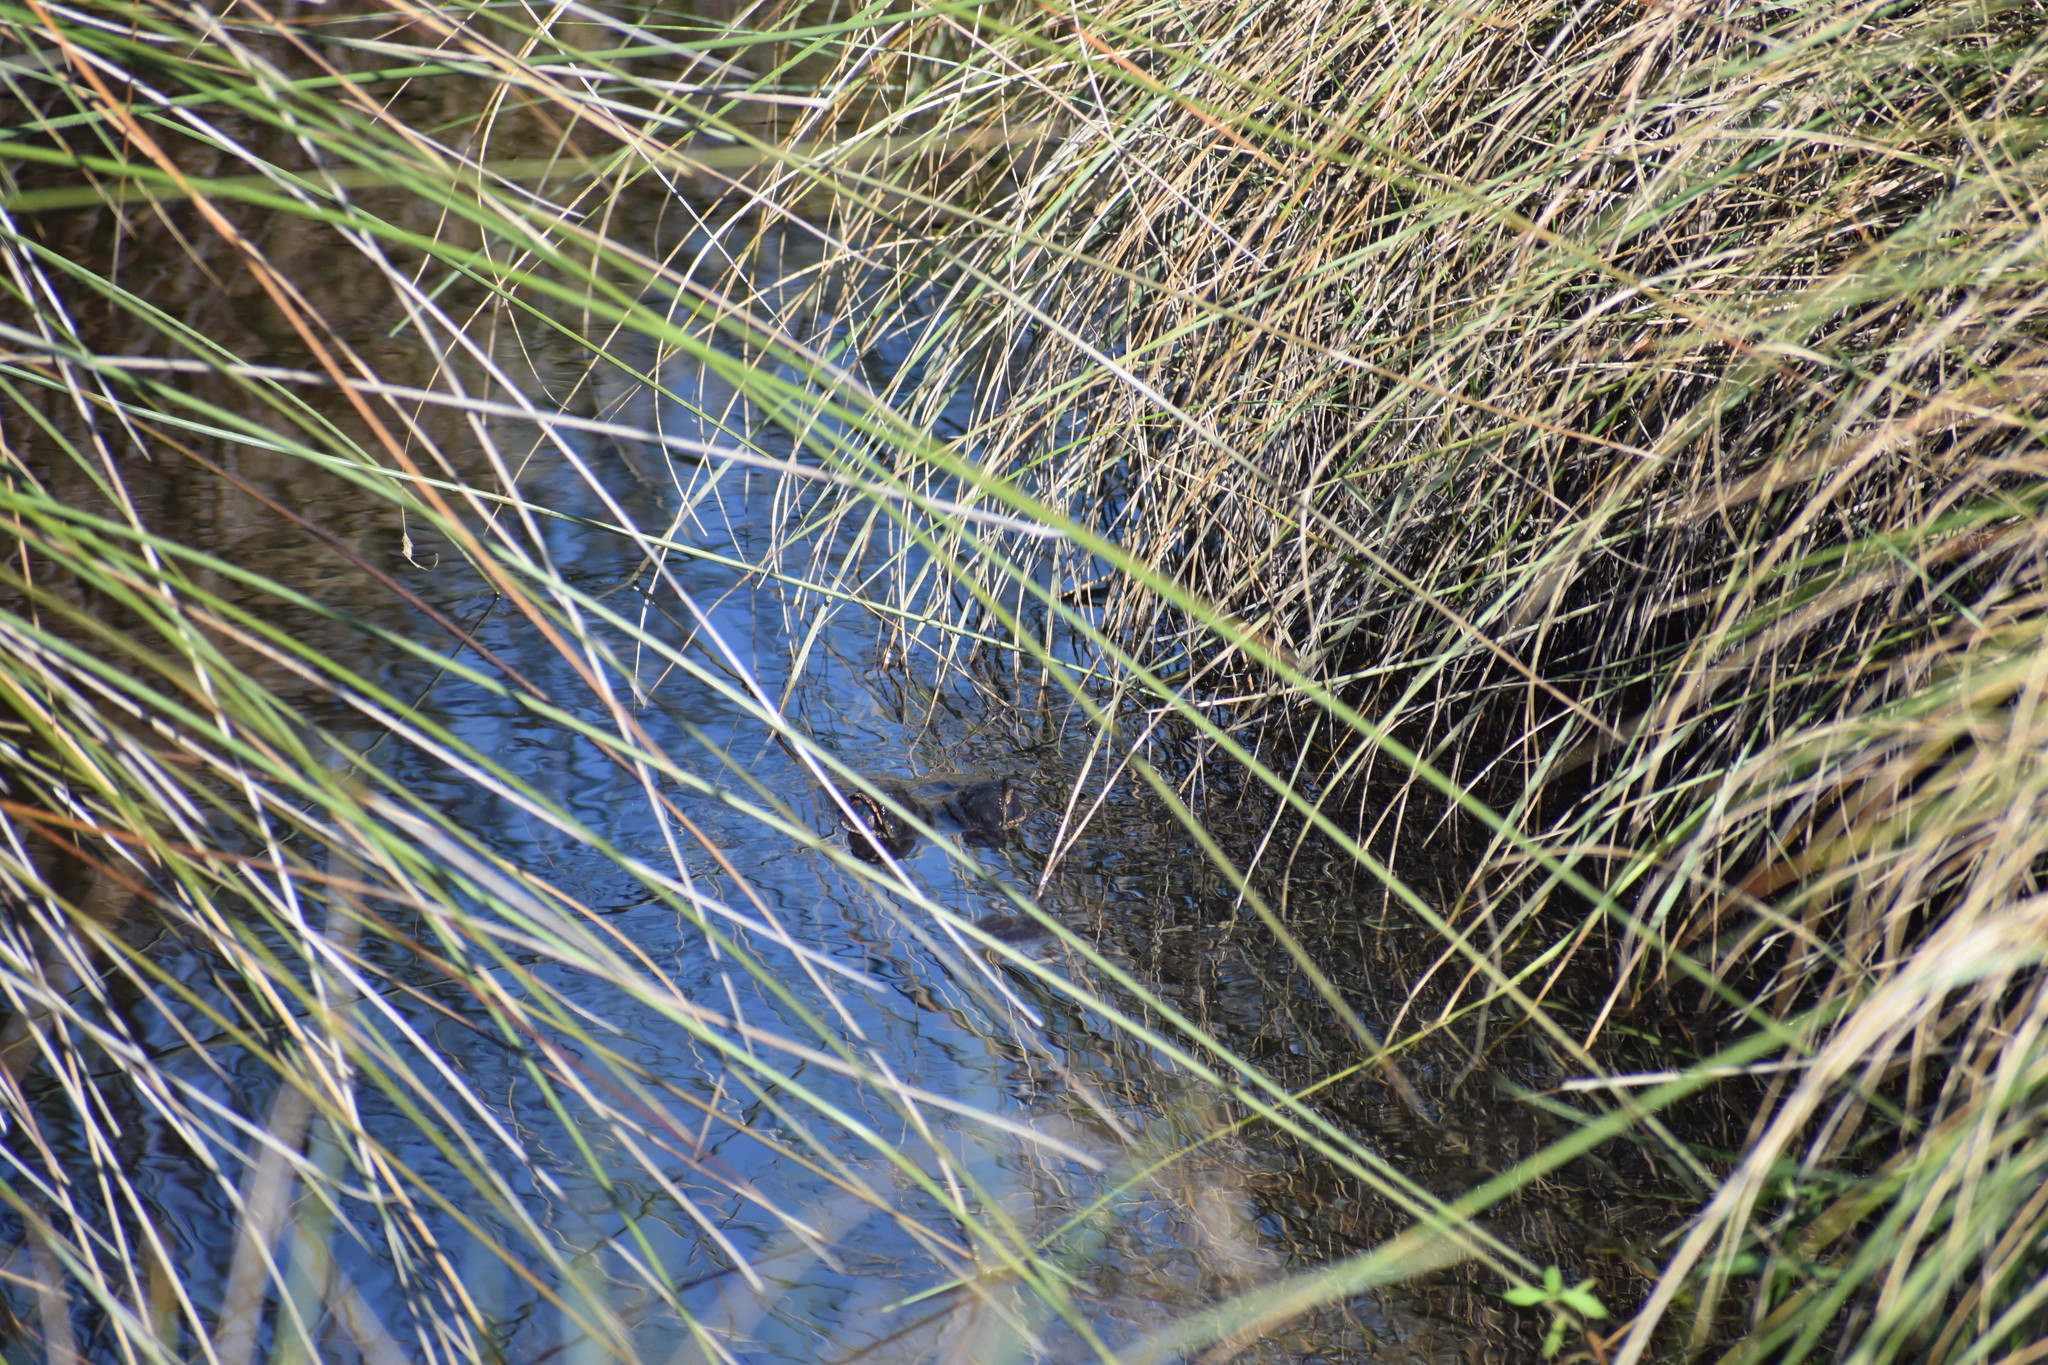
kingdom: Animalia
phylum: Chordata
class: Crocodylia
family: Alligatoridae
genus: Alligator
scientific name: Alligator mississippiensis
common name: American alligator
